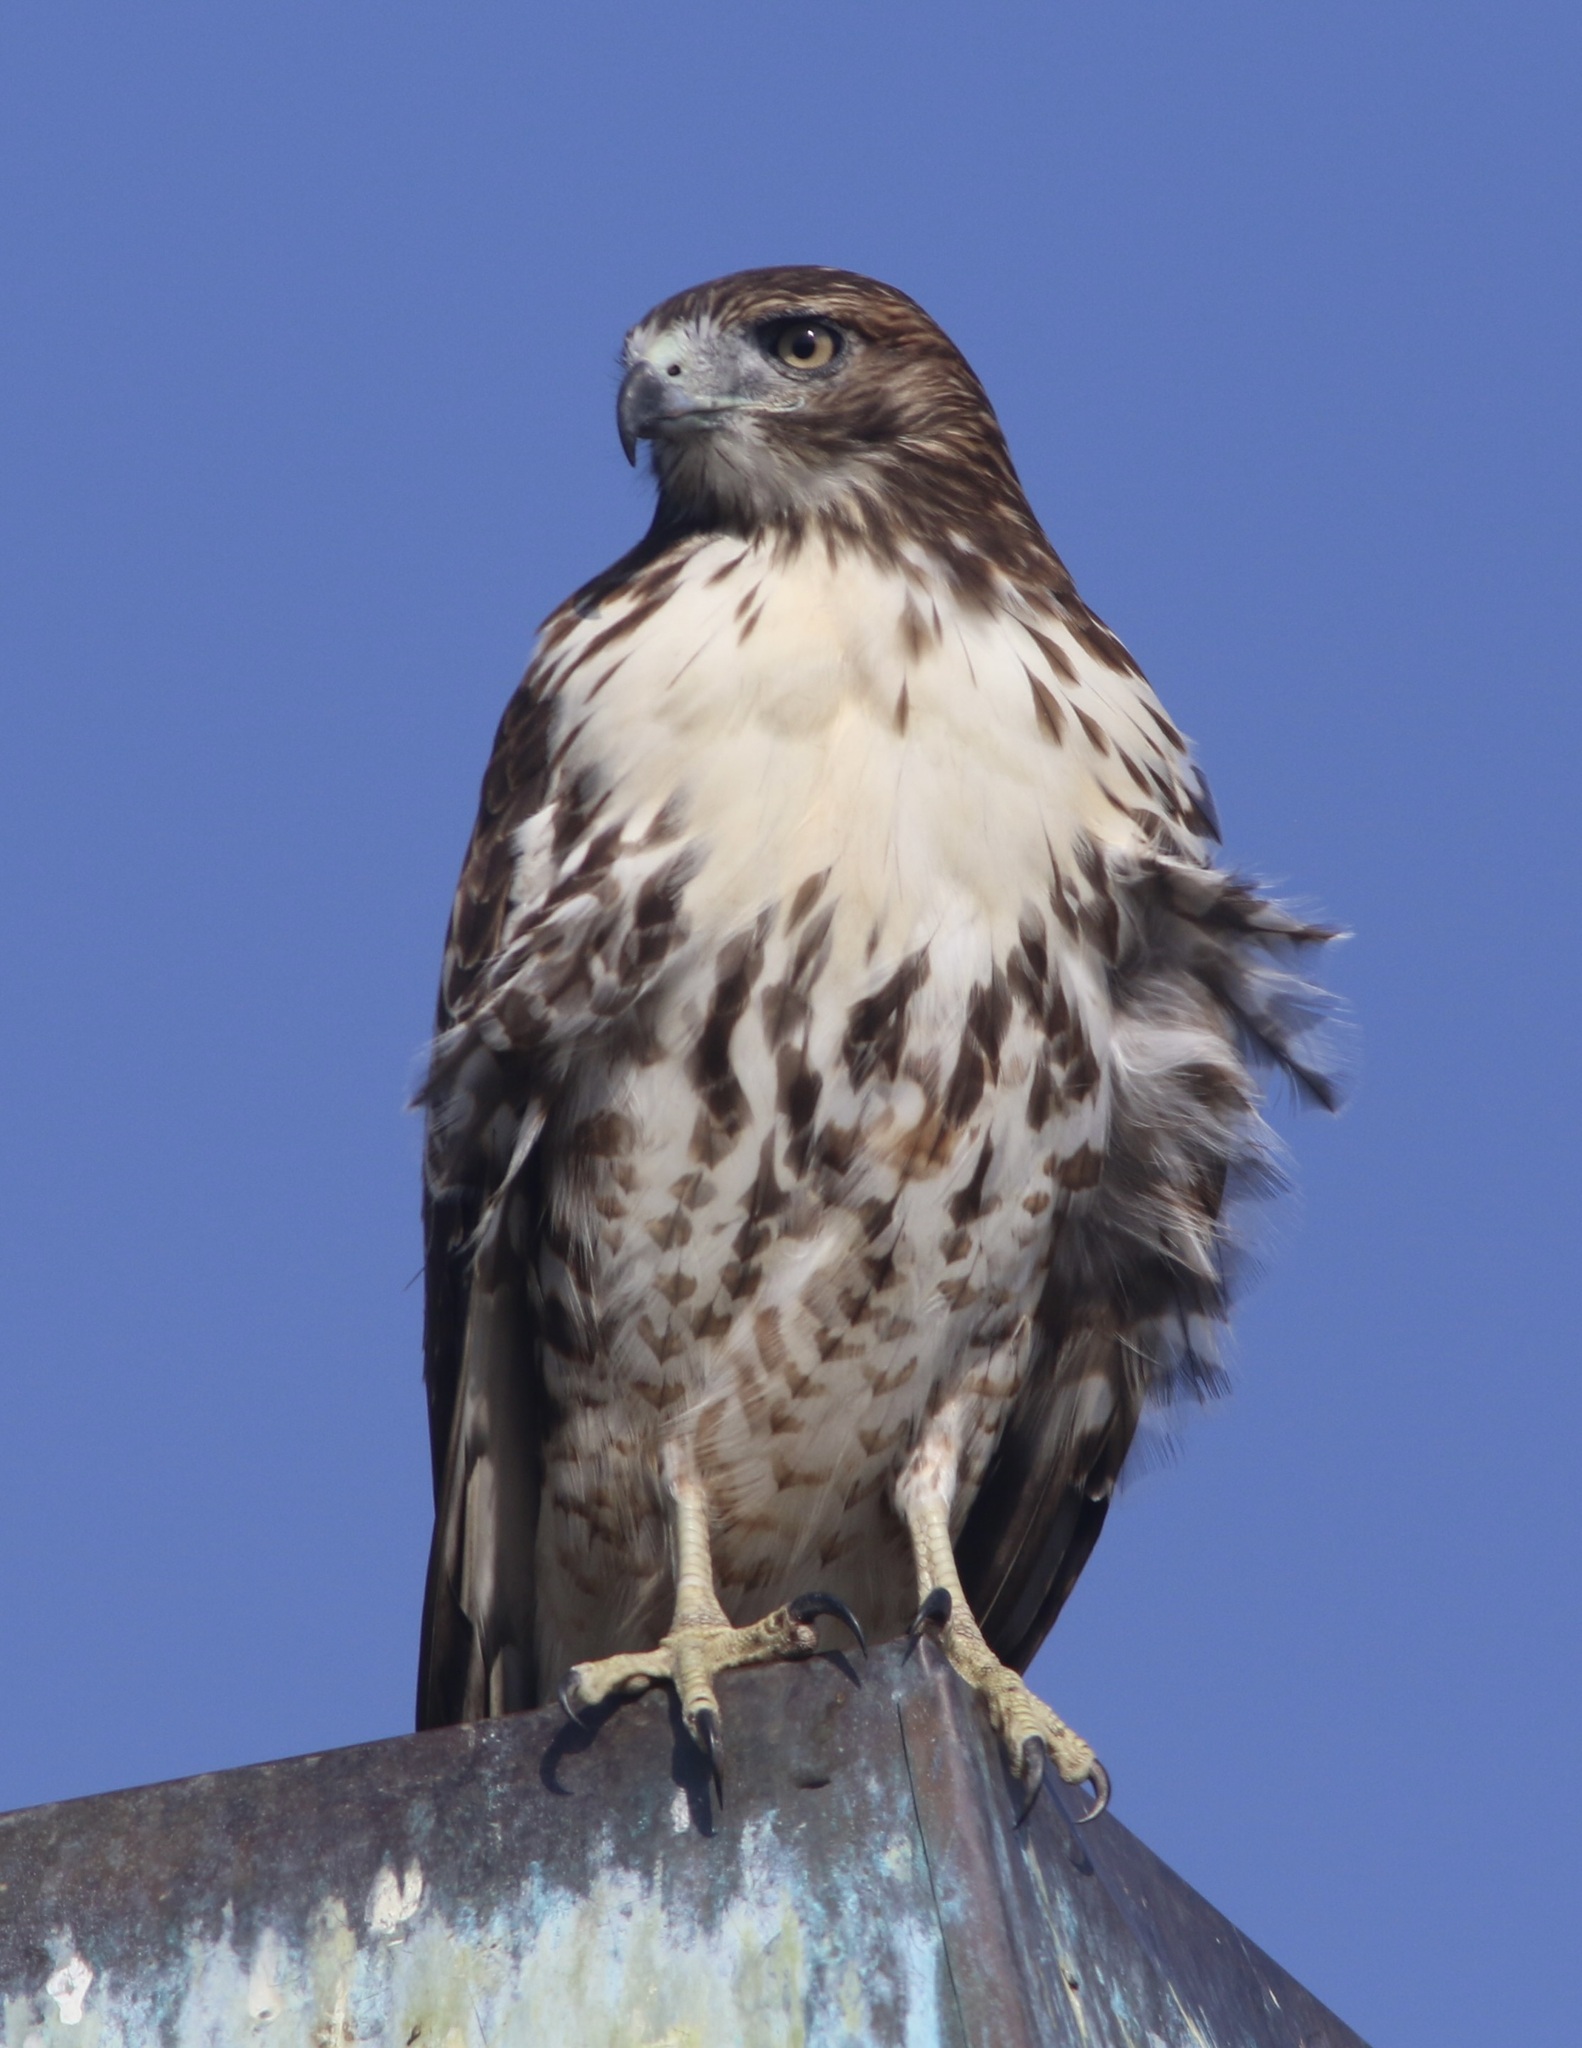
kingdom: Animalia
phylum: Chordata
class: Aves
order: Accipitriformes
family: Accipitridae
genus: Buteo
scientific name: Buteo jamaicensis
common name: Red-tailed hawk
